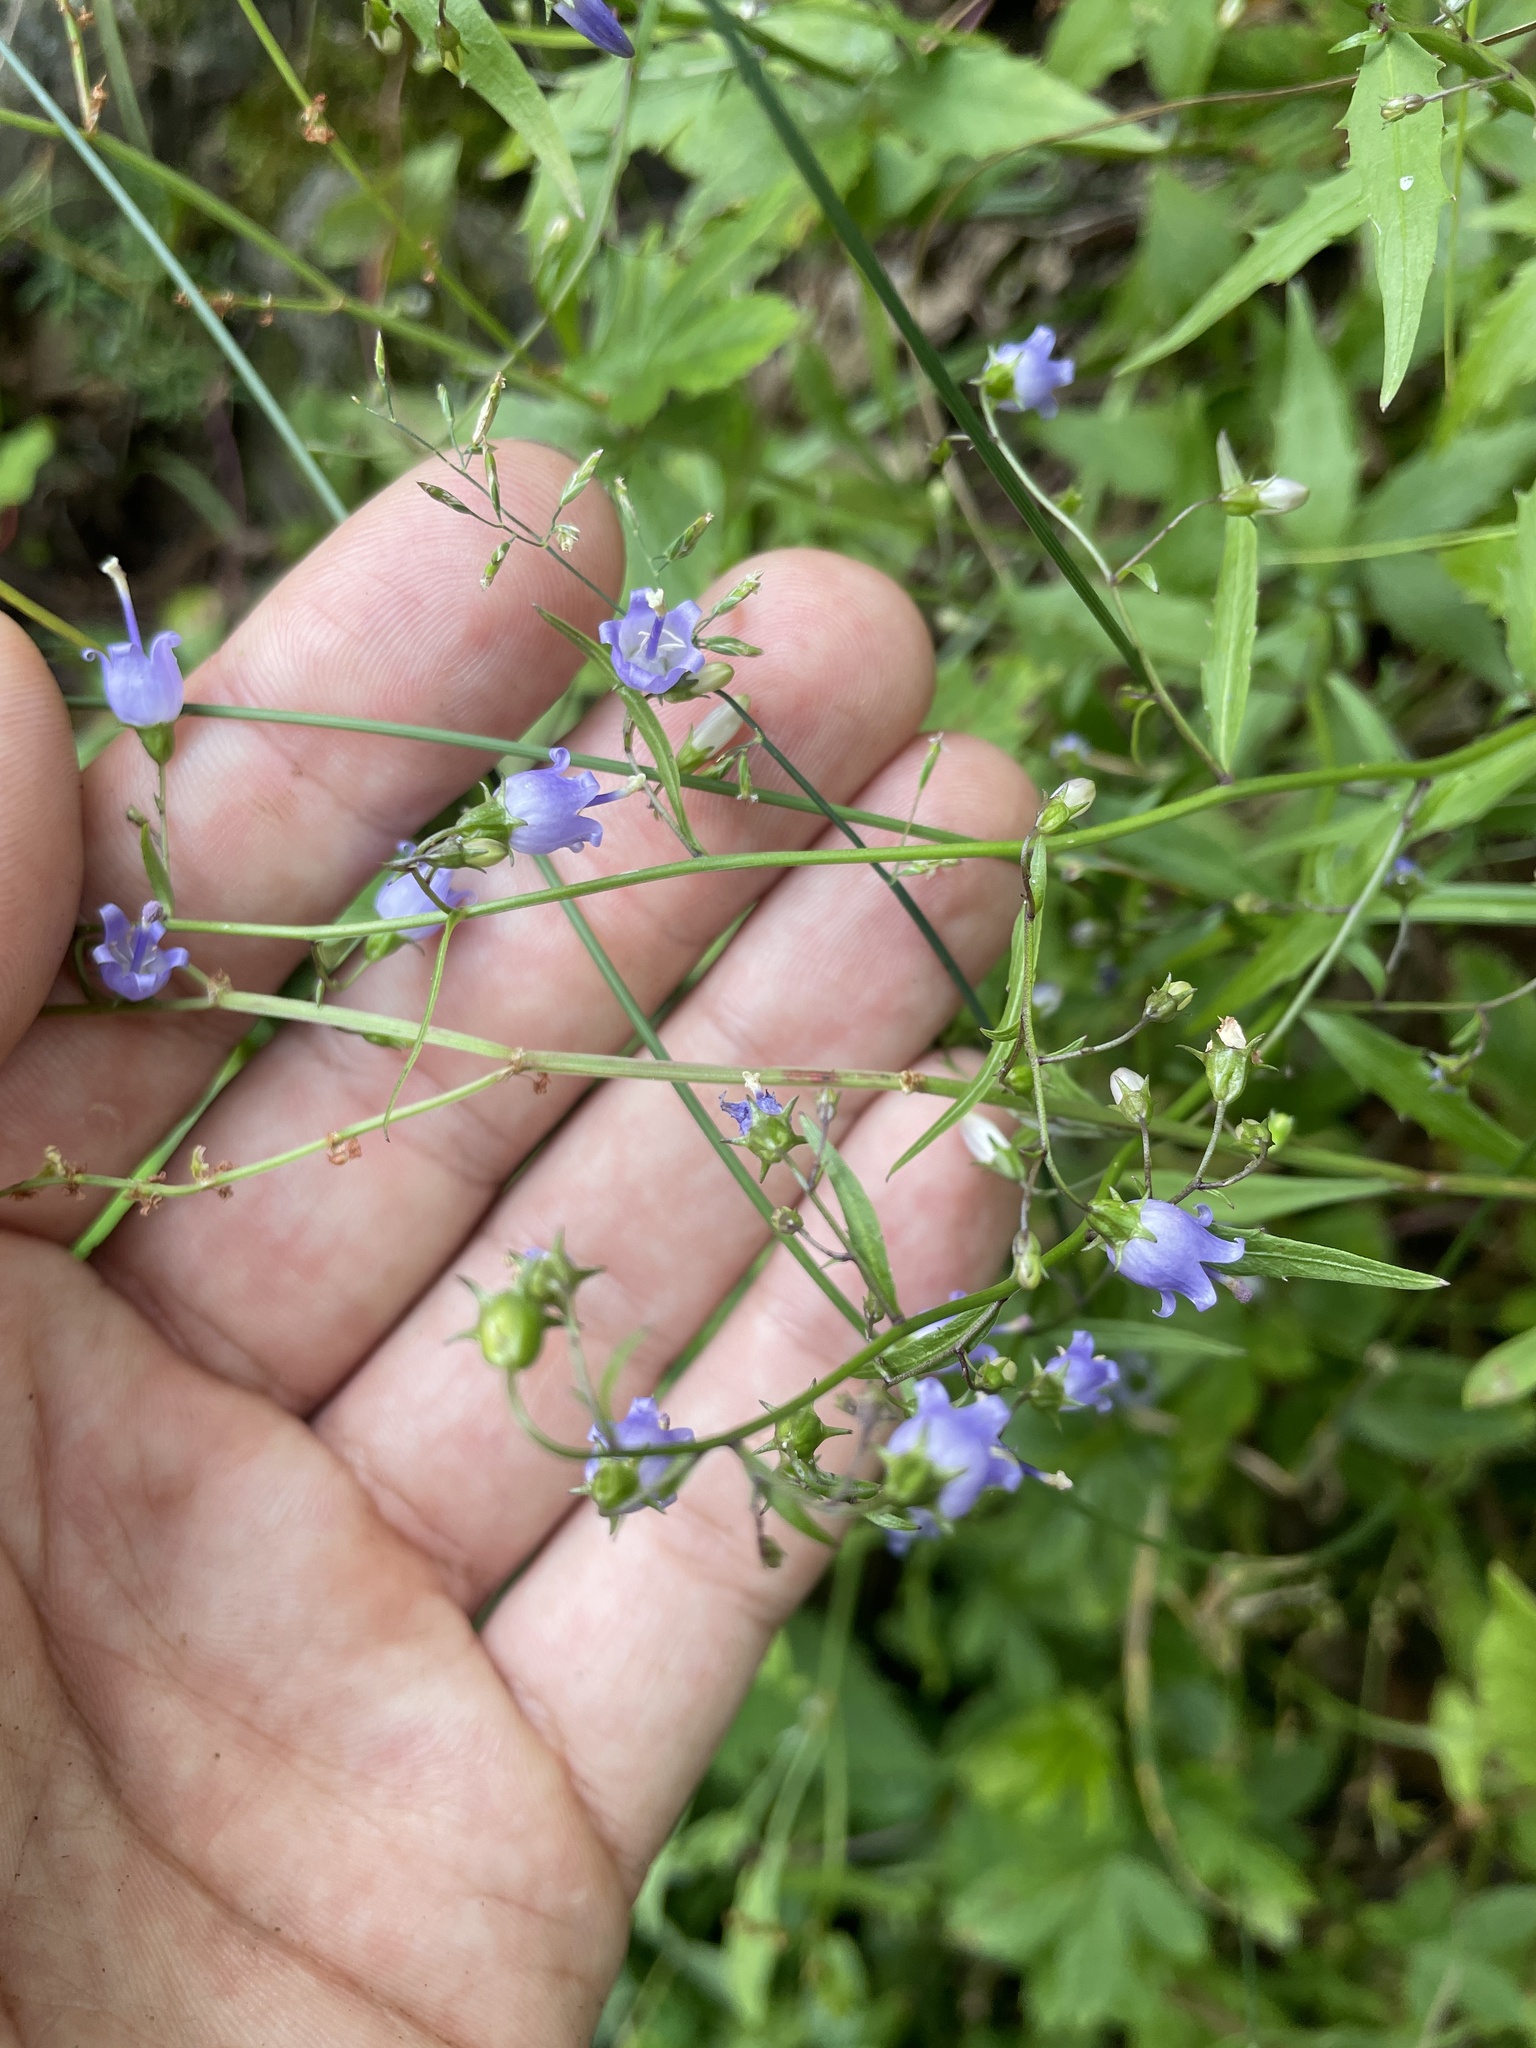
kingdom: Plantae
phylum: Tracheophyta
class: Magnoliopsida
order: Asterales
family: Campanulaceae
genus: Campanula
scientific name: Campanula divaricata
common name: Appalachian bellflower
